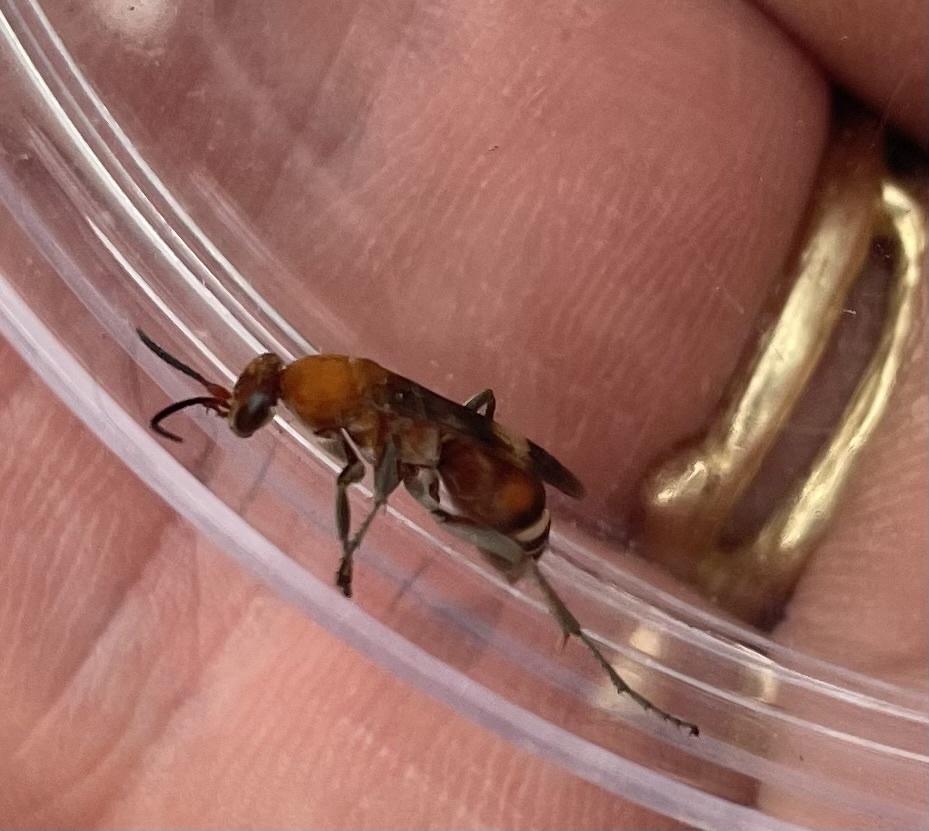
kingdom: Animalia
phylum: Arthropoda
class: Insecta
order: Hymenoptera
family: Pompilidae
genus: Psorthaspis
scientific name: Psorthaspis legata
